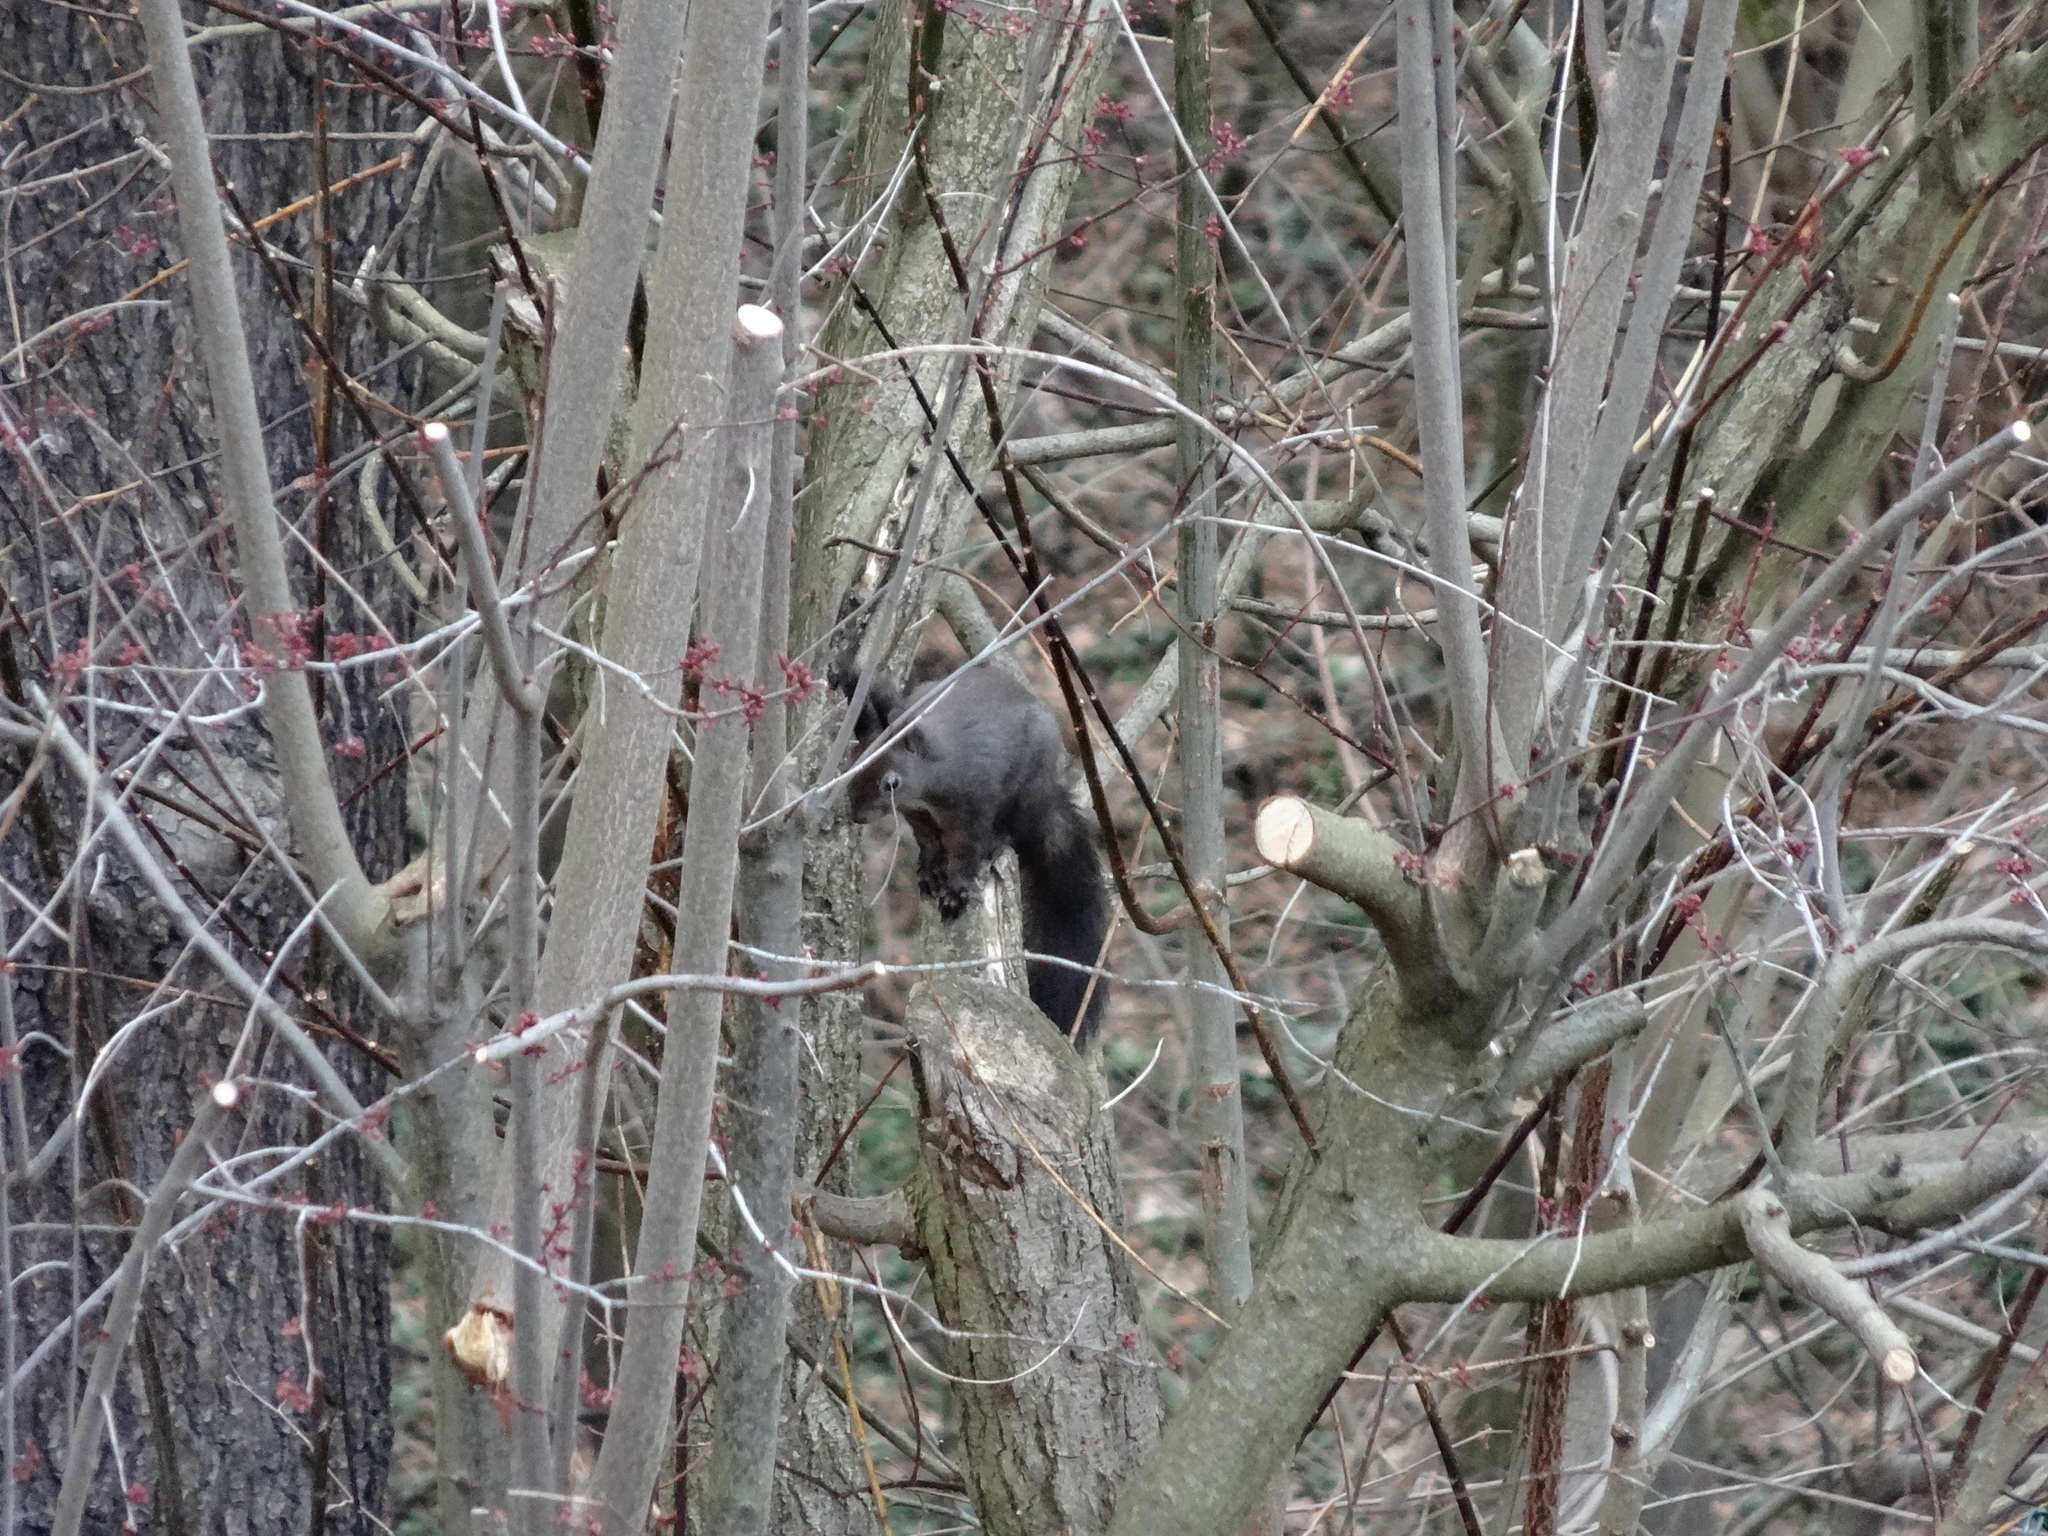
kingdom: Animalia
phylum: Chordata
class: Mammalia
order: Rodentia
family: Sciuridae
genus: Sciurus
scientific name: Sciurus vulgaris
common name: Eurasian red squirrel
